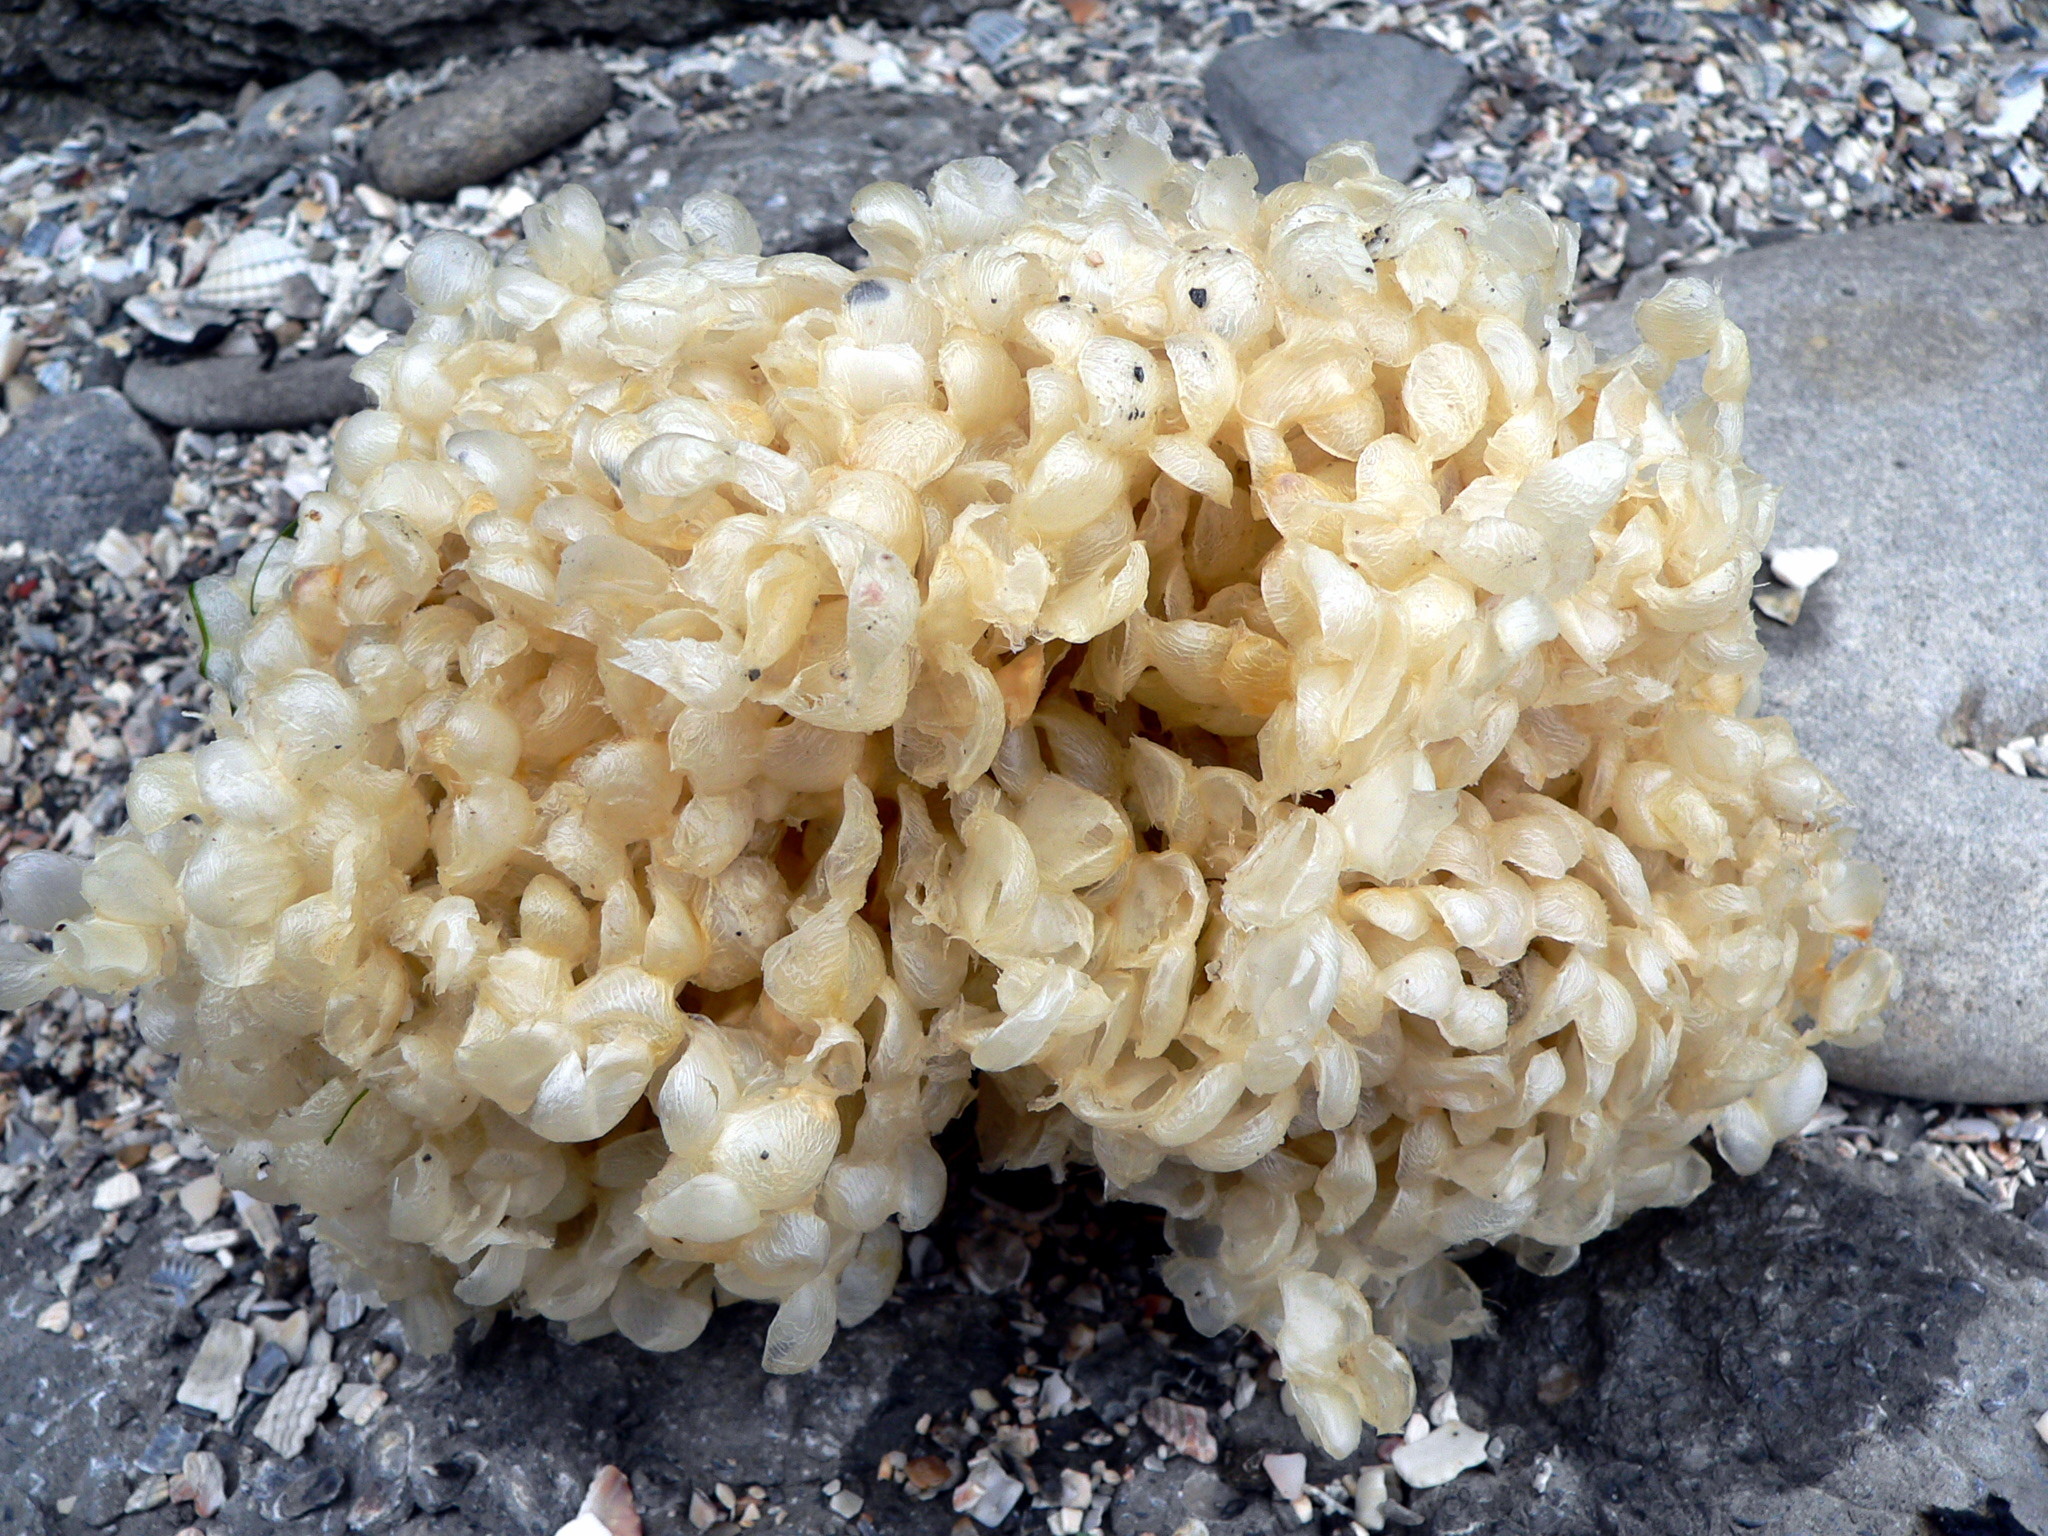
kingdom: Animalia
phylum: Mollusca
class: Gastropoda
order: Neogastropoda
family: Buccinidae
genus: Buccinum
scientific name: Buccinum undatum
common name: Common whelk
